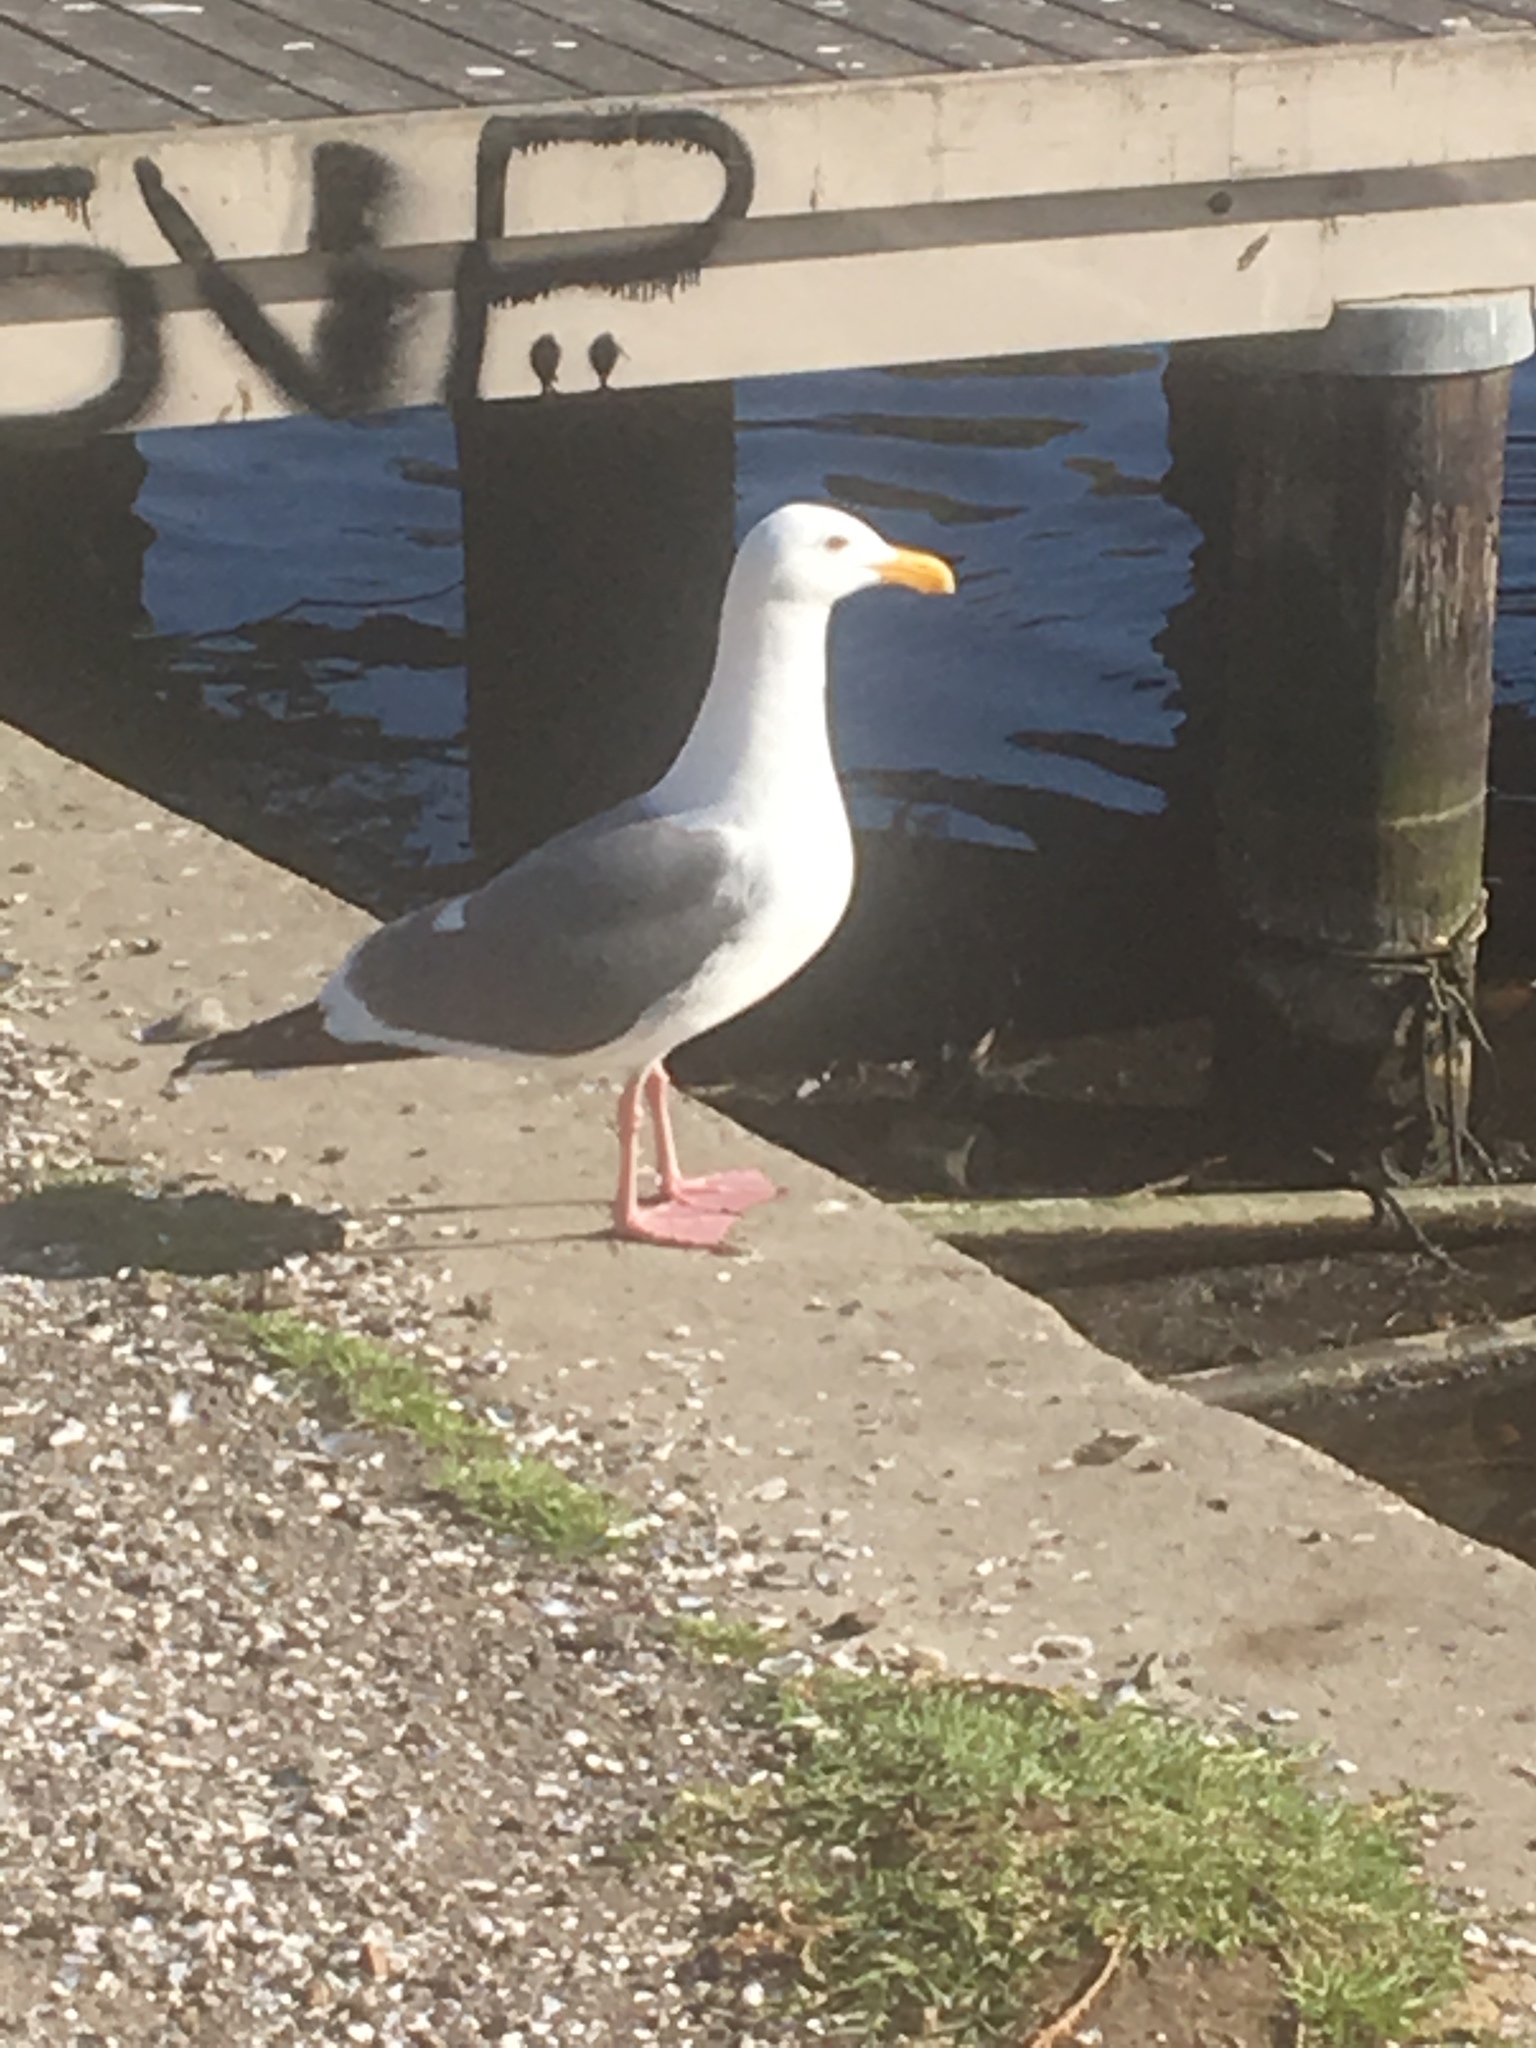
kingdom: Animalia
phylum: Chordata
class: Aves
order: Charadriiformes
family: Laridae
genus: Larus
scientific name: Larus occidentalis
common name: Western gull
